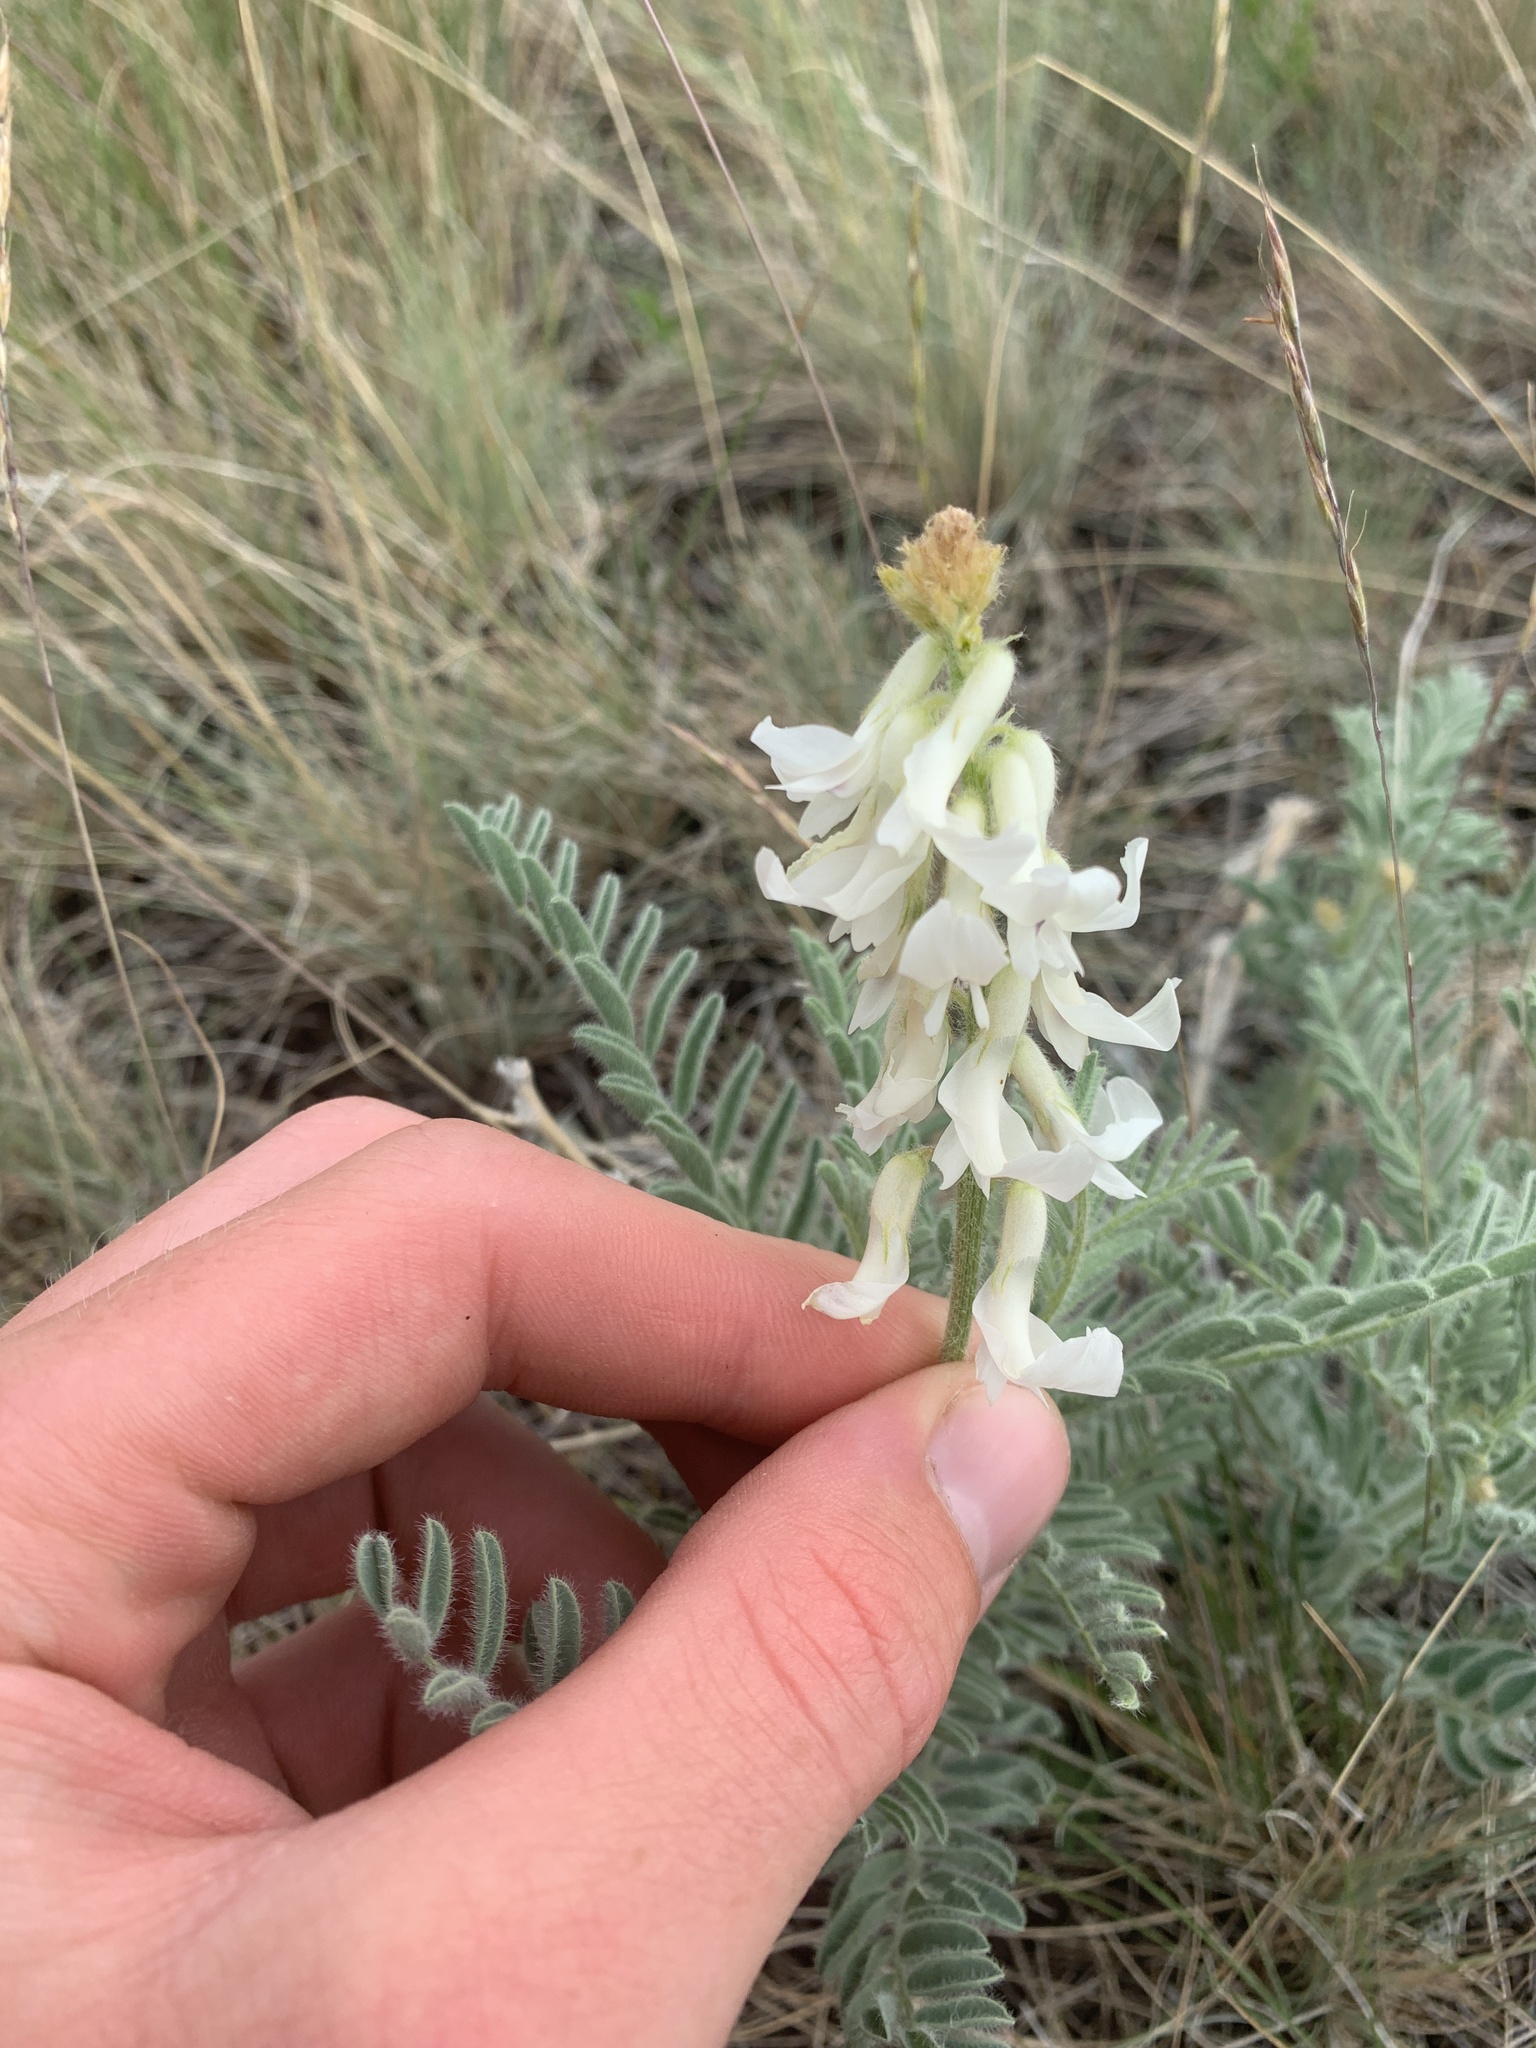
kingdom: Plantae
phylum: Tracheophyta
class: Magnoliopsida
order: Fabales
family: Fabaceae
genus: Astragalus
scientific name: Astragalus drummondii
